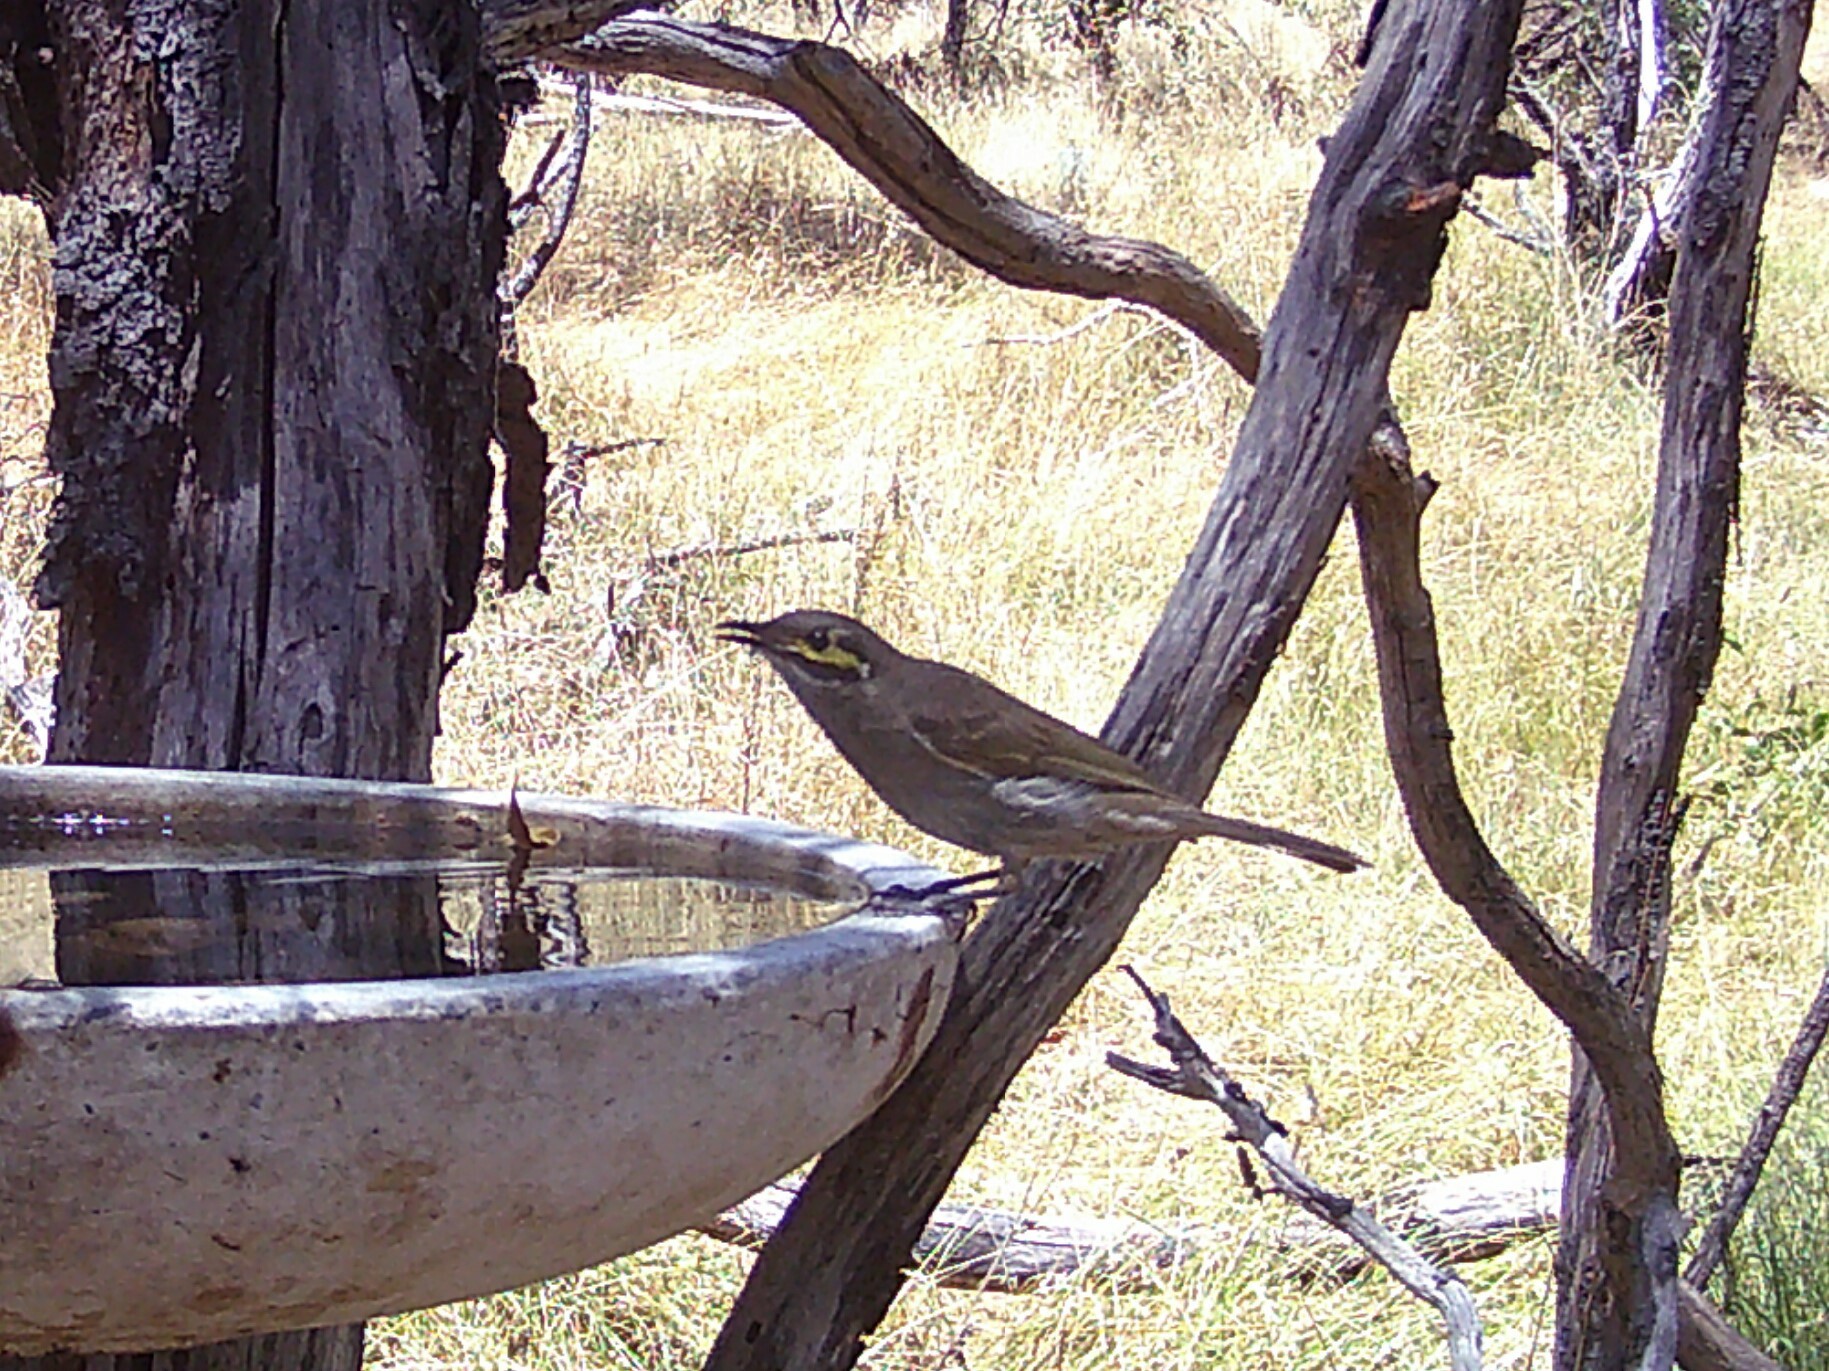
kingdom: Animalia
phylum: Chordata
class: Aves
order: Passeriformes
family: Meliphagidae
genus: Caligavis
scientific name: Caligavis chrysops
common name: Yellow-faced honeyeater
